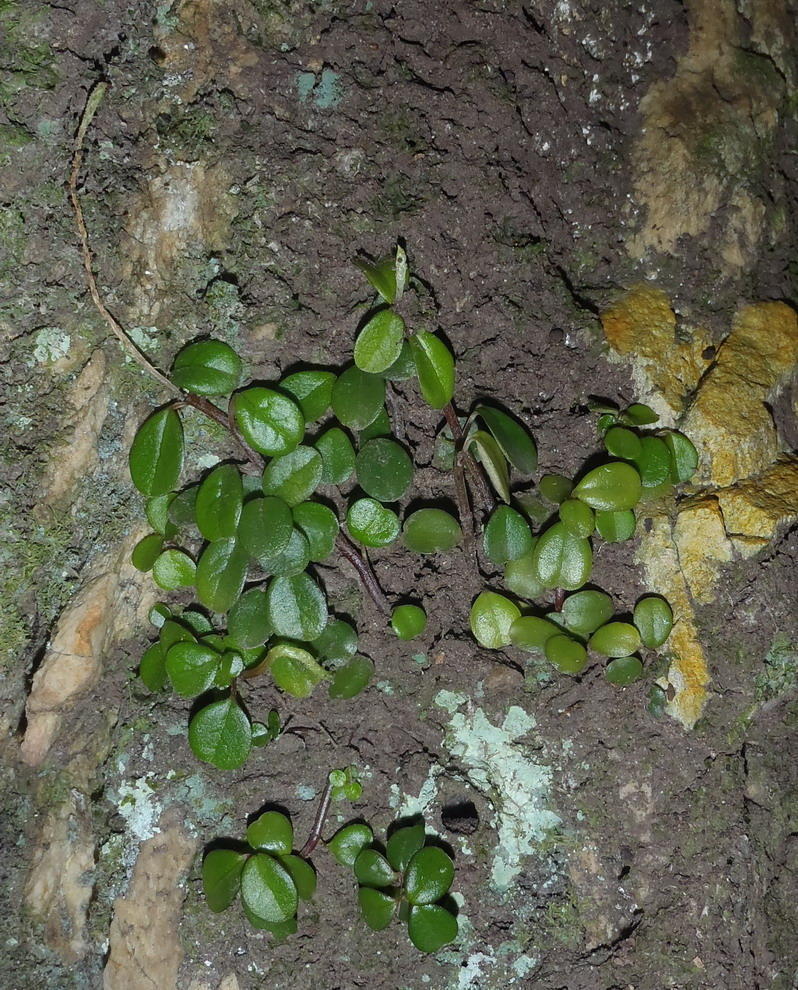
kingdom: Plantae
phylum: Tracheophyta
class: Magnoliopsida
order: Piperales
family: Piperaceae
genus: Peperomia
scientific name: Peperomia retusa
